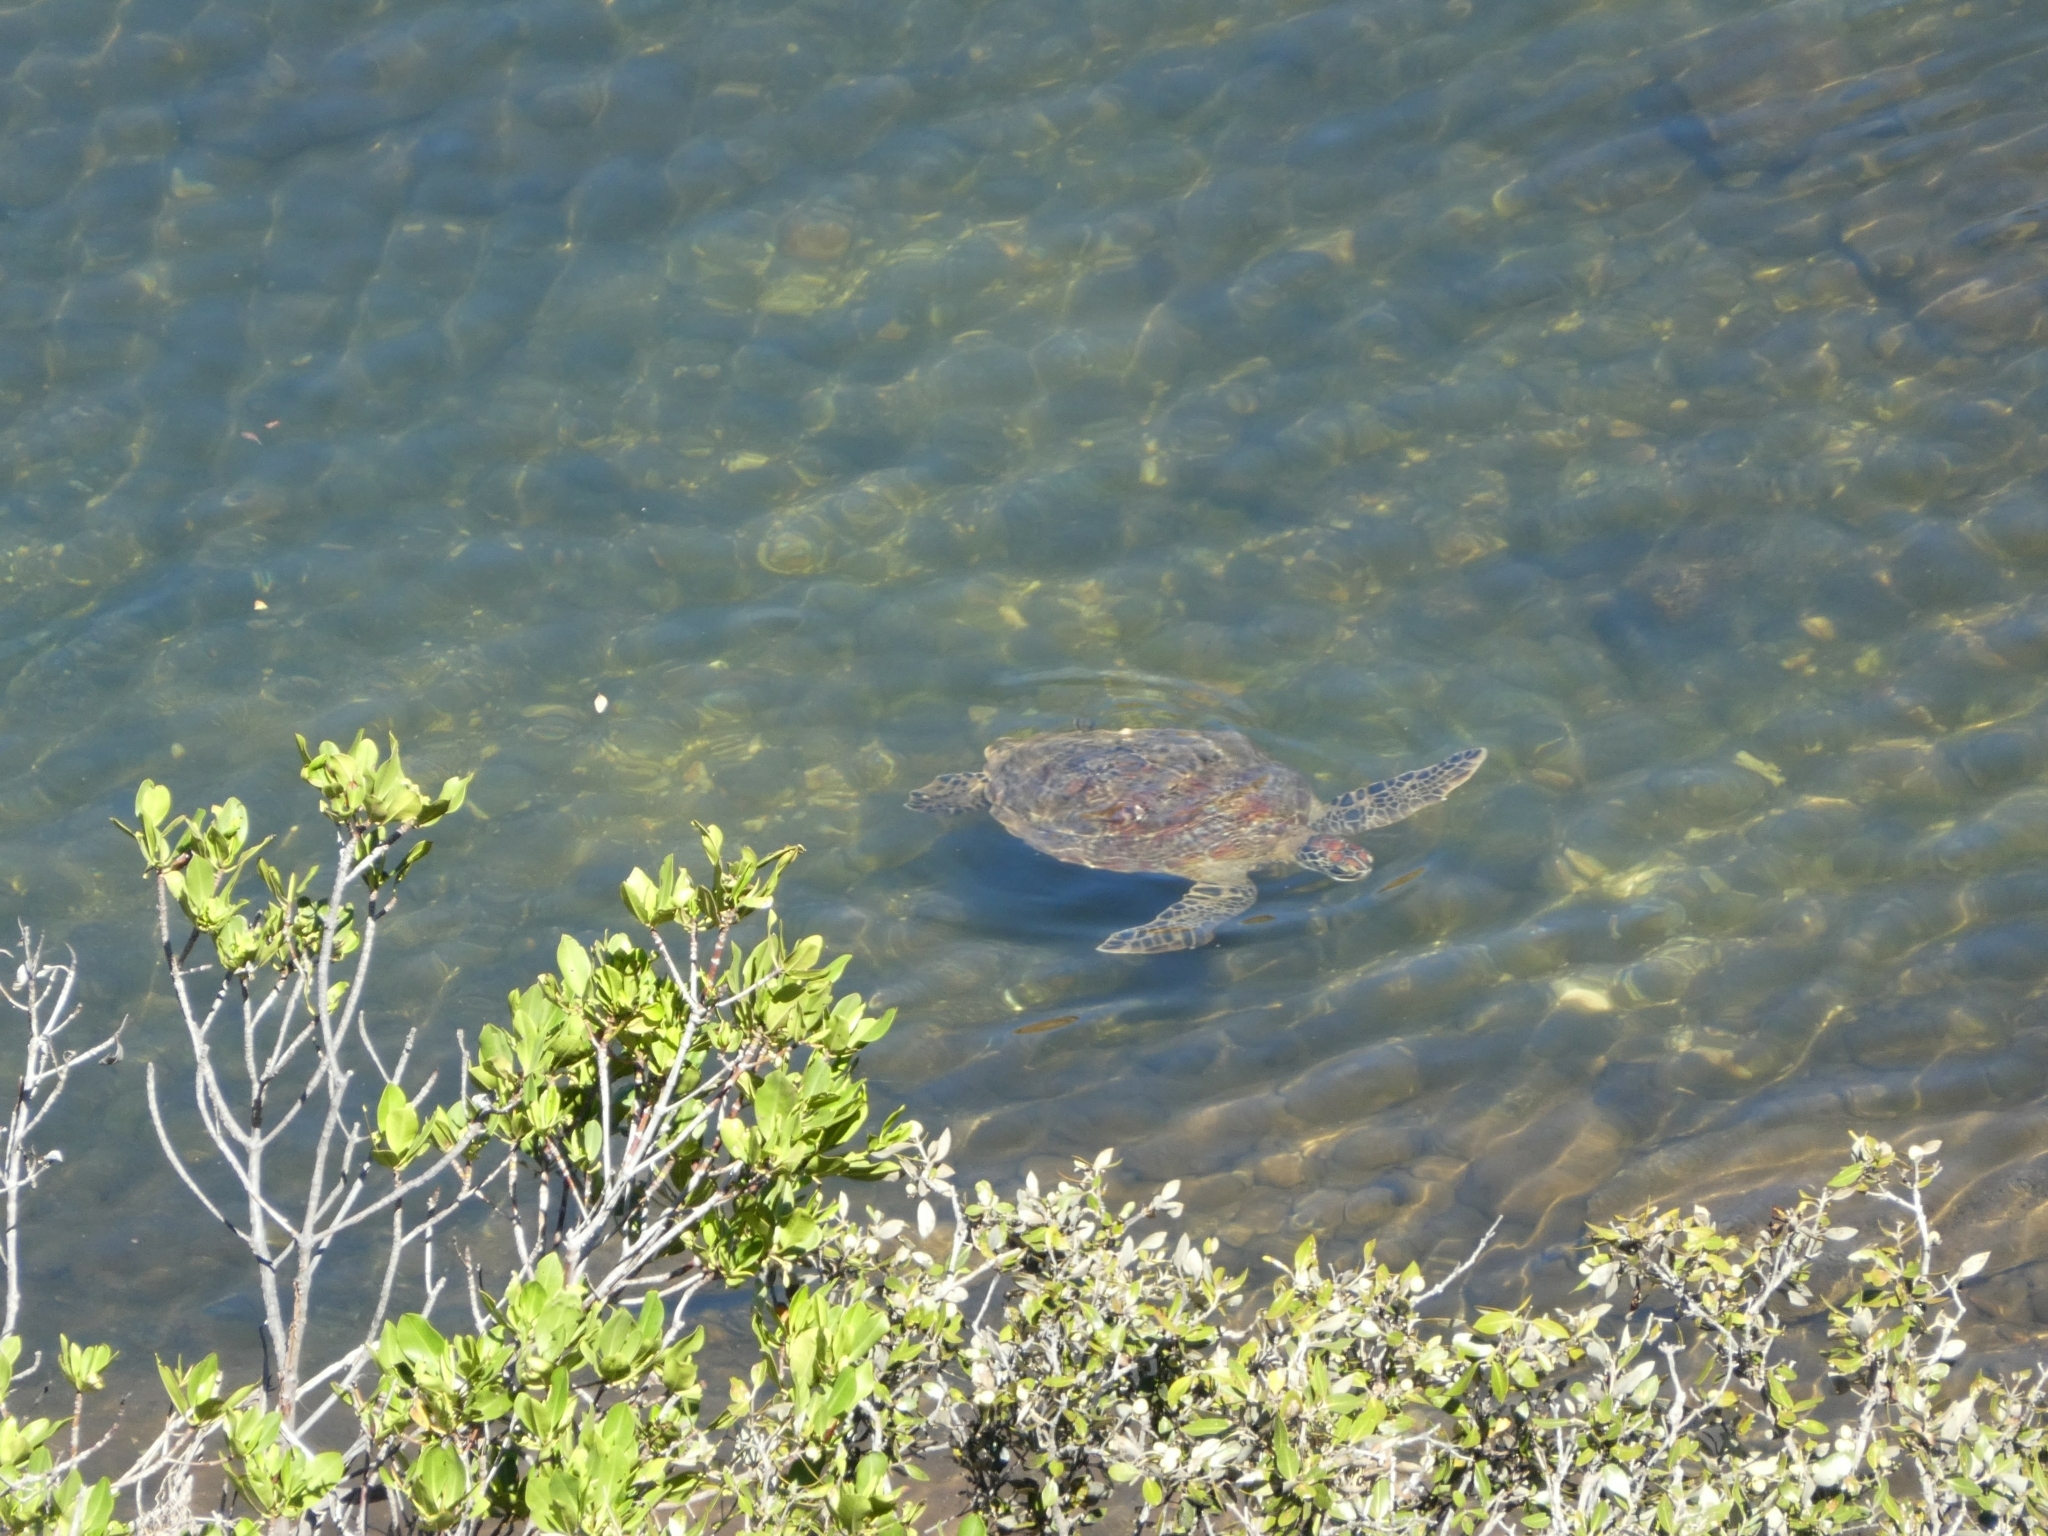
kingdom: Animalia
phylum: Chordata
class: Testudines
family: Cheloniidae
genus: Chelonia
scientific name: Chelonia mydas
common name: Green turtle
